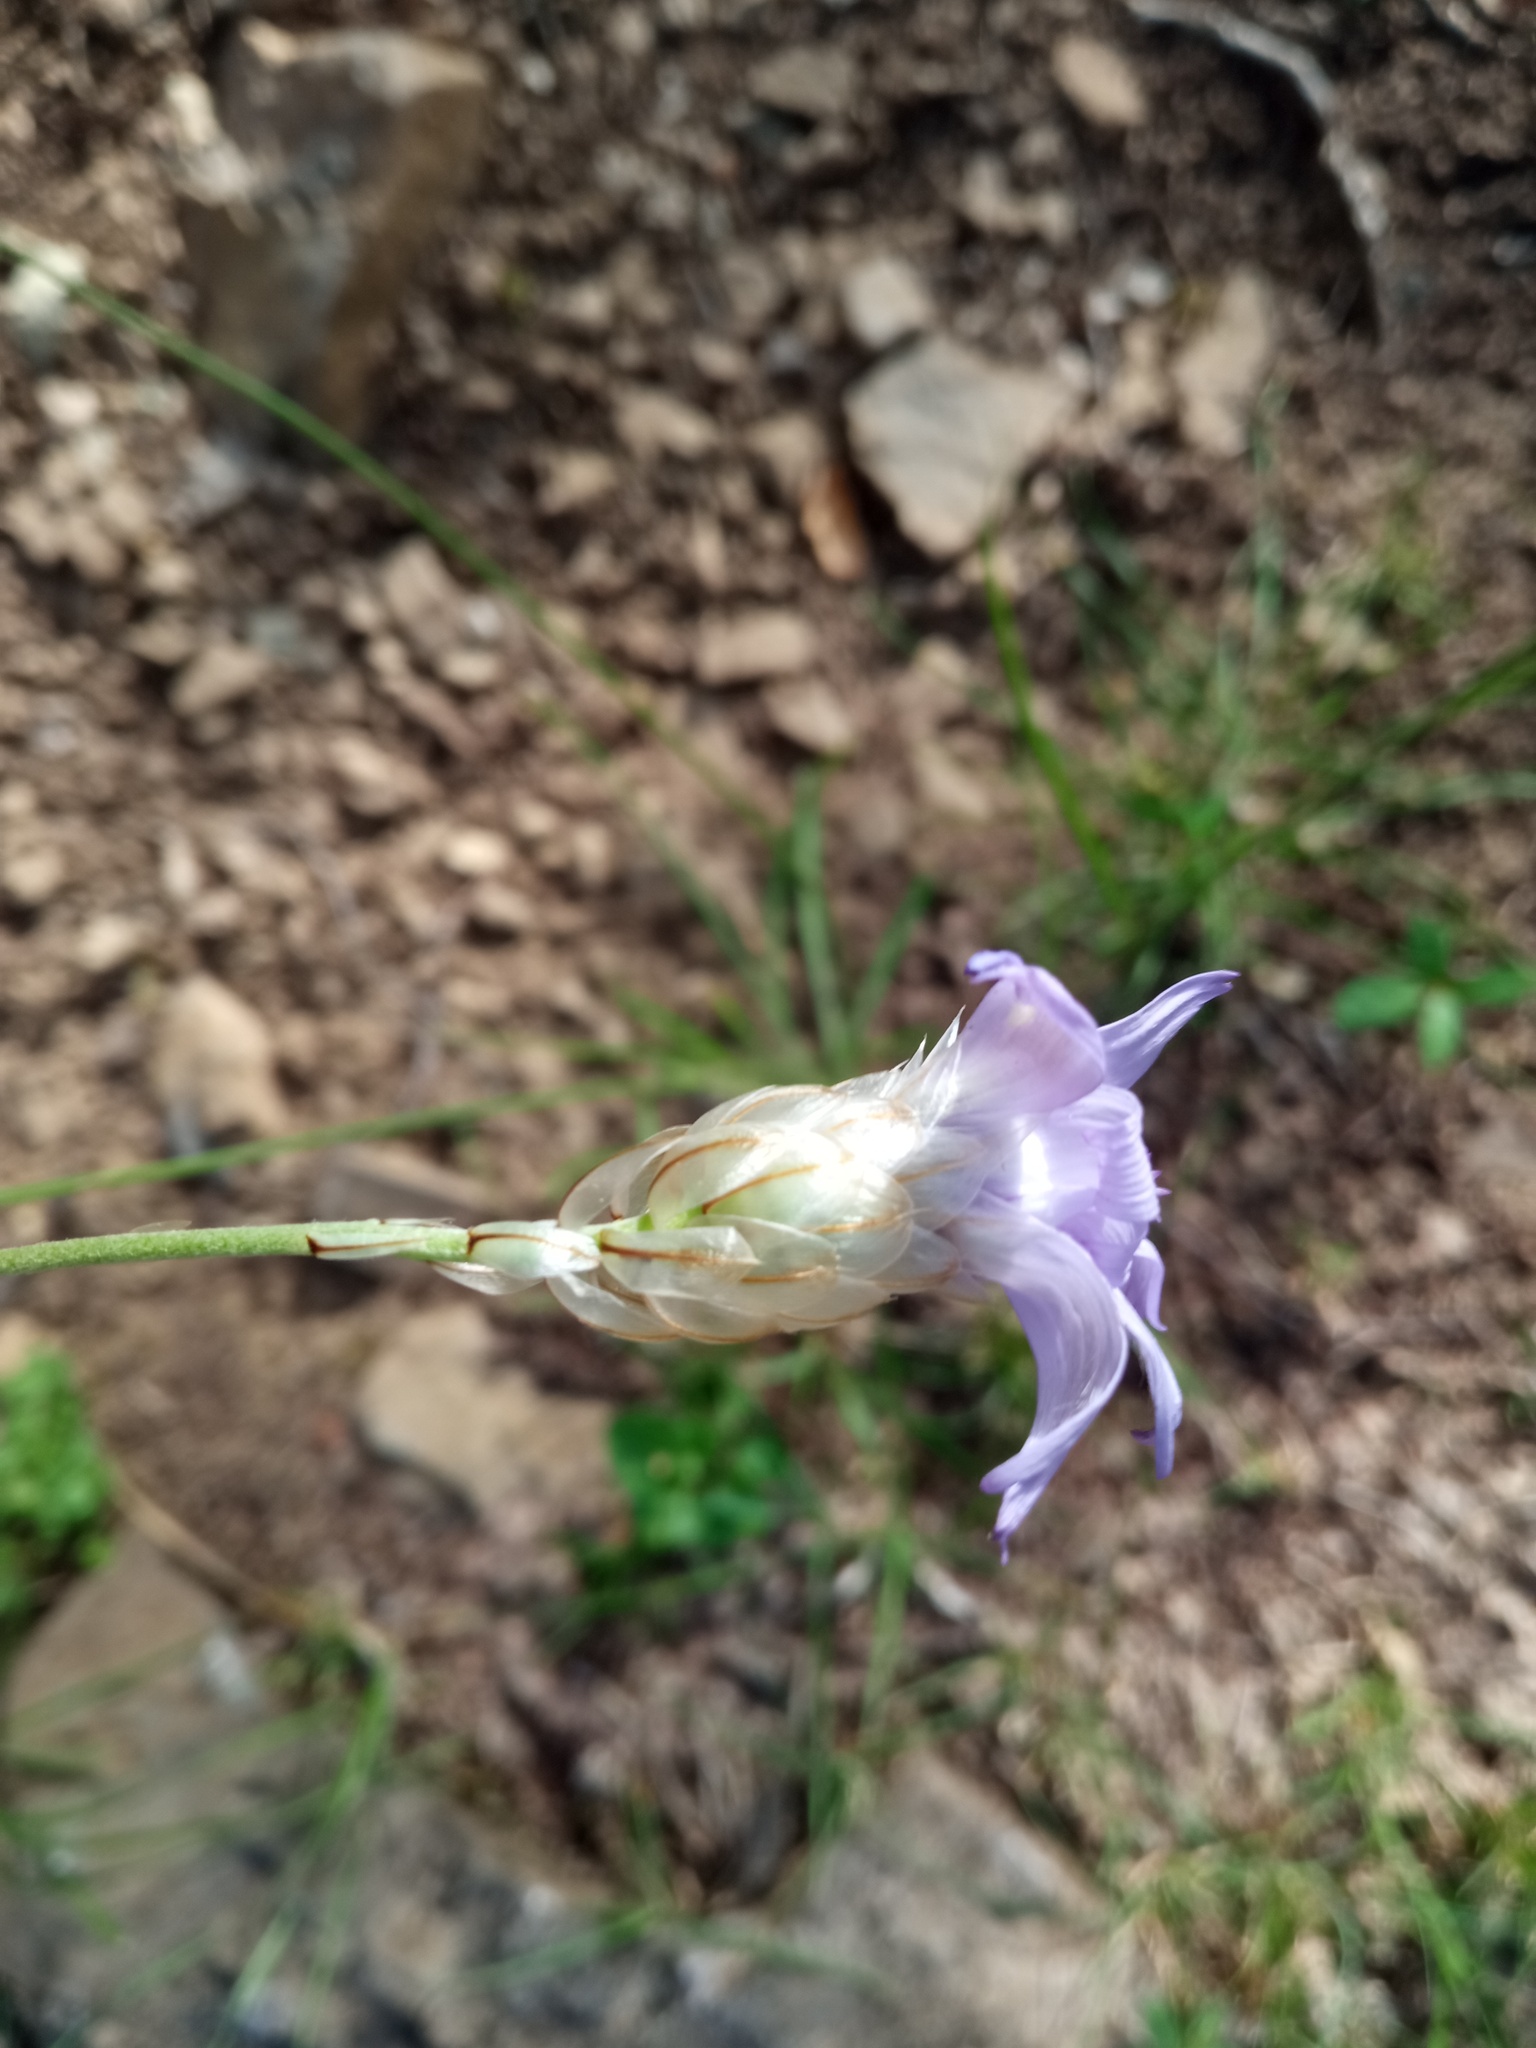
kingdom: Plantae
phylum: Tracheophyta
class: Magnoliopsida
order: Asterales
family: Asteraceae
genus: Catananche
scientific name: Catananche caerulea
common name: Blue cupidone
